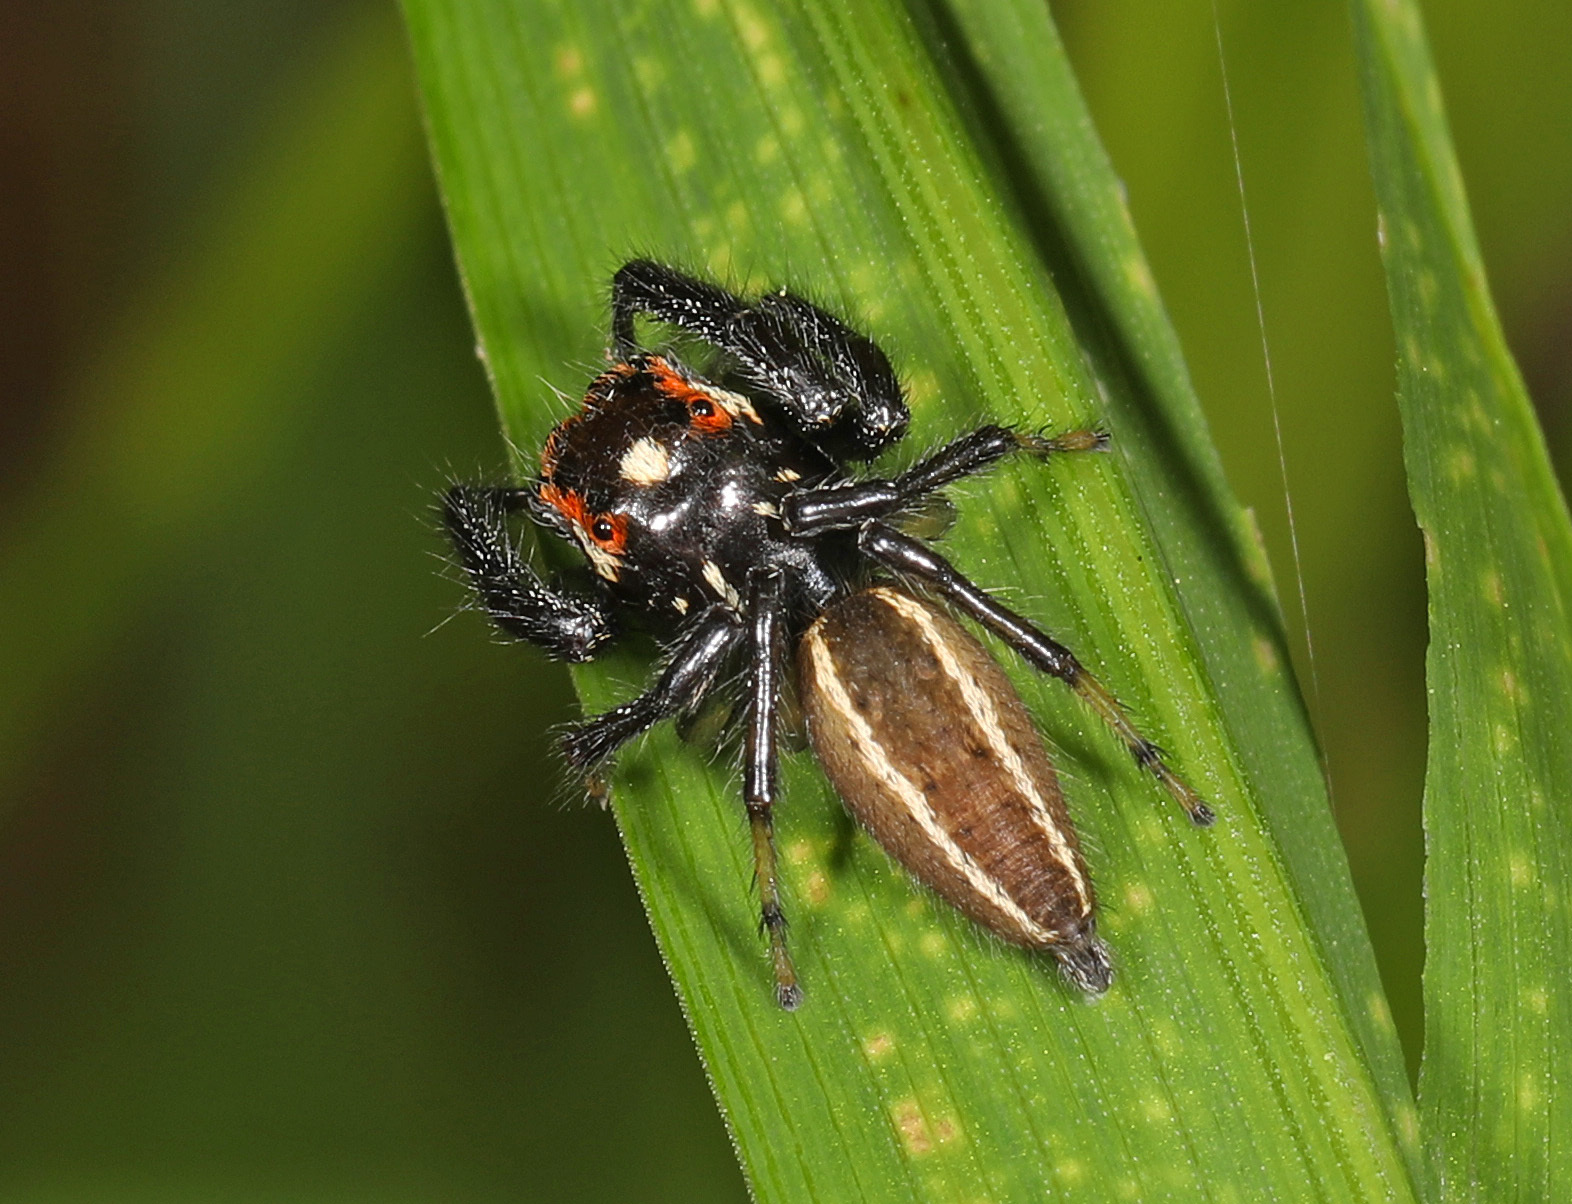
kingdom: Animalia
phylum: Arthropoda
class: Arachnida
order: Araneae
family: Salticidae
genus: Colonus
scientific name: Colonus sylvanus
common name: Jumping spiders
